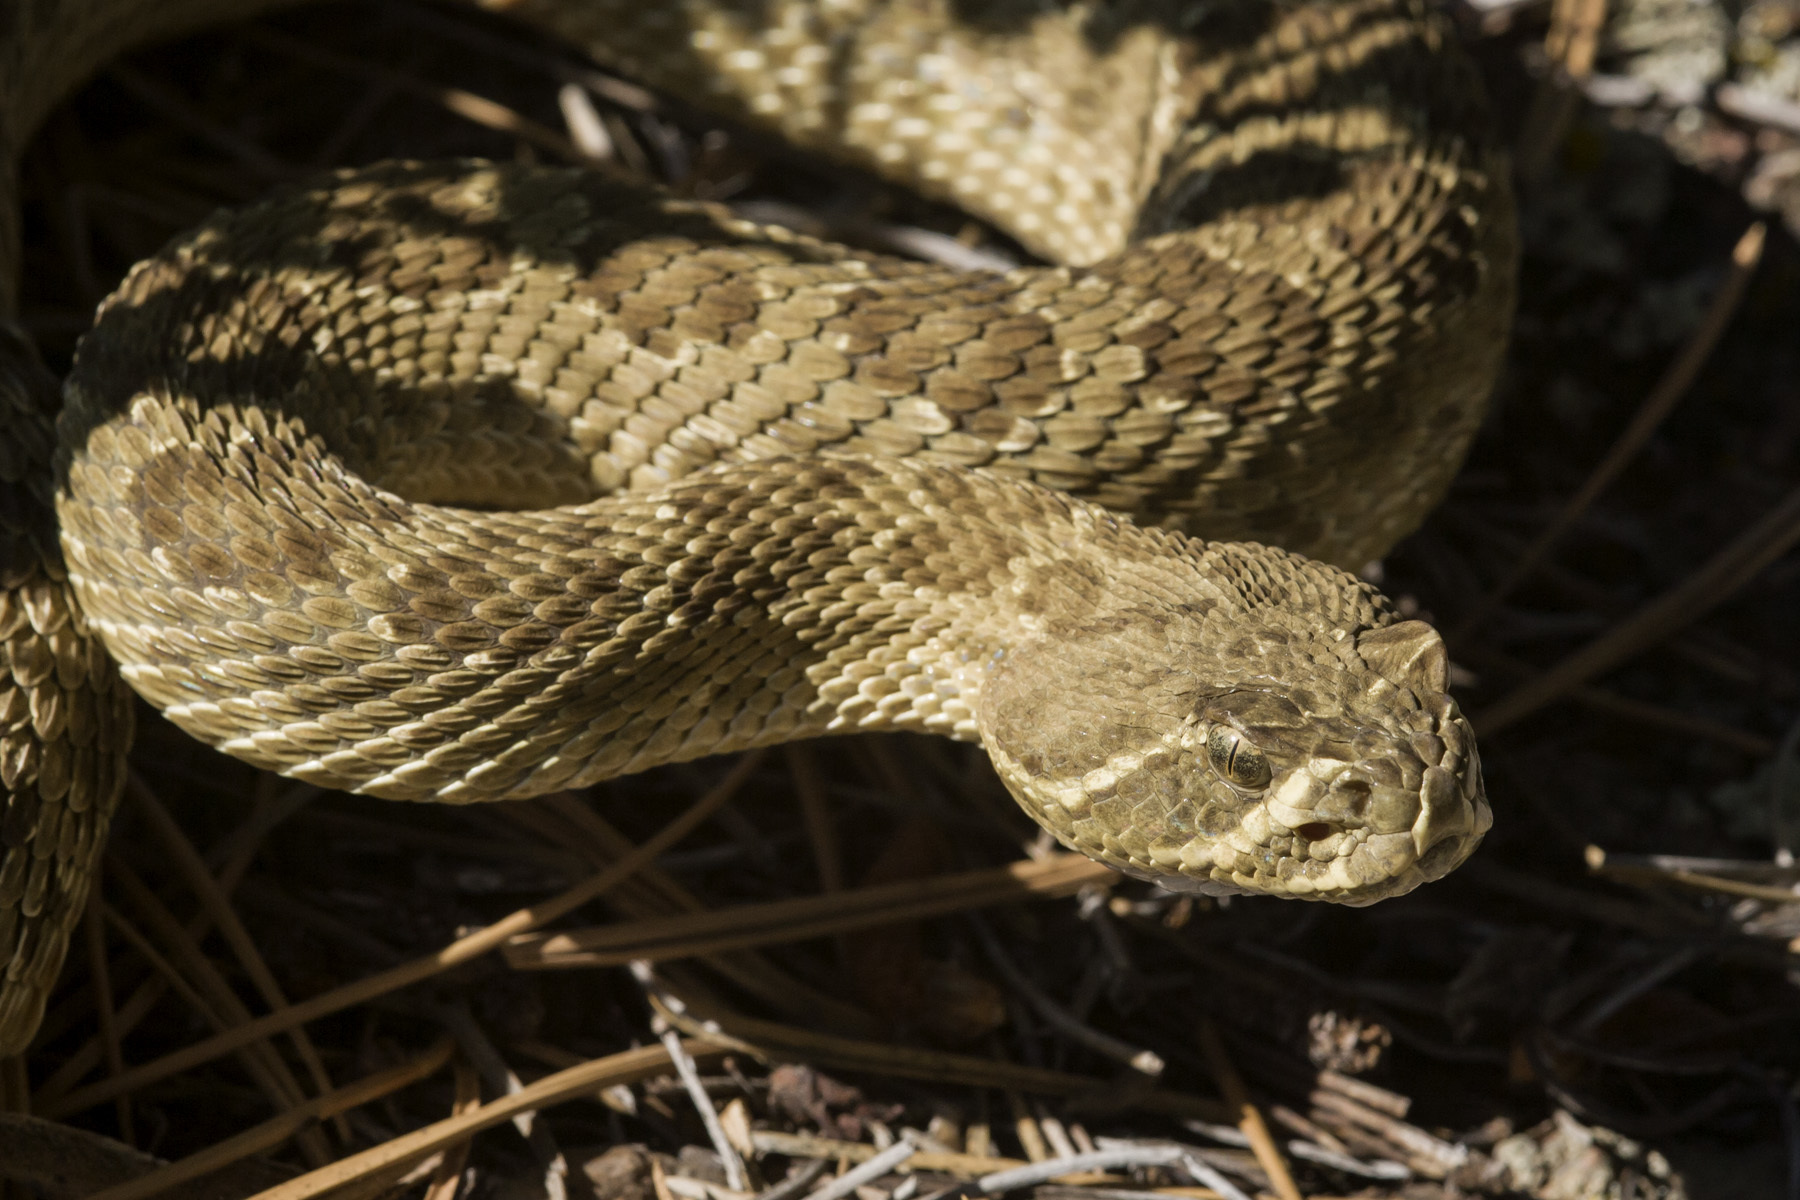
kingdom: Animalia
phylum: Chordata
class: Squamata
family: Viperidae
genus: Crotalus
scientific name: Crotalus viridis
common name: Prairie rattlesnake
